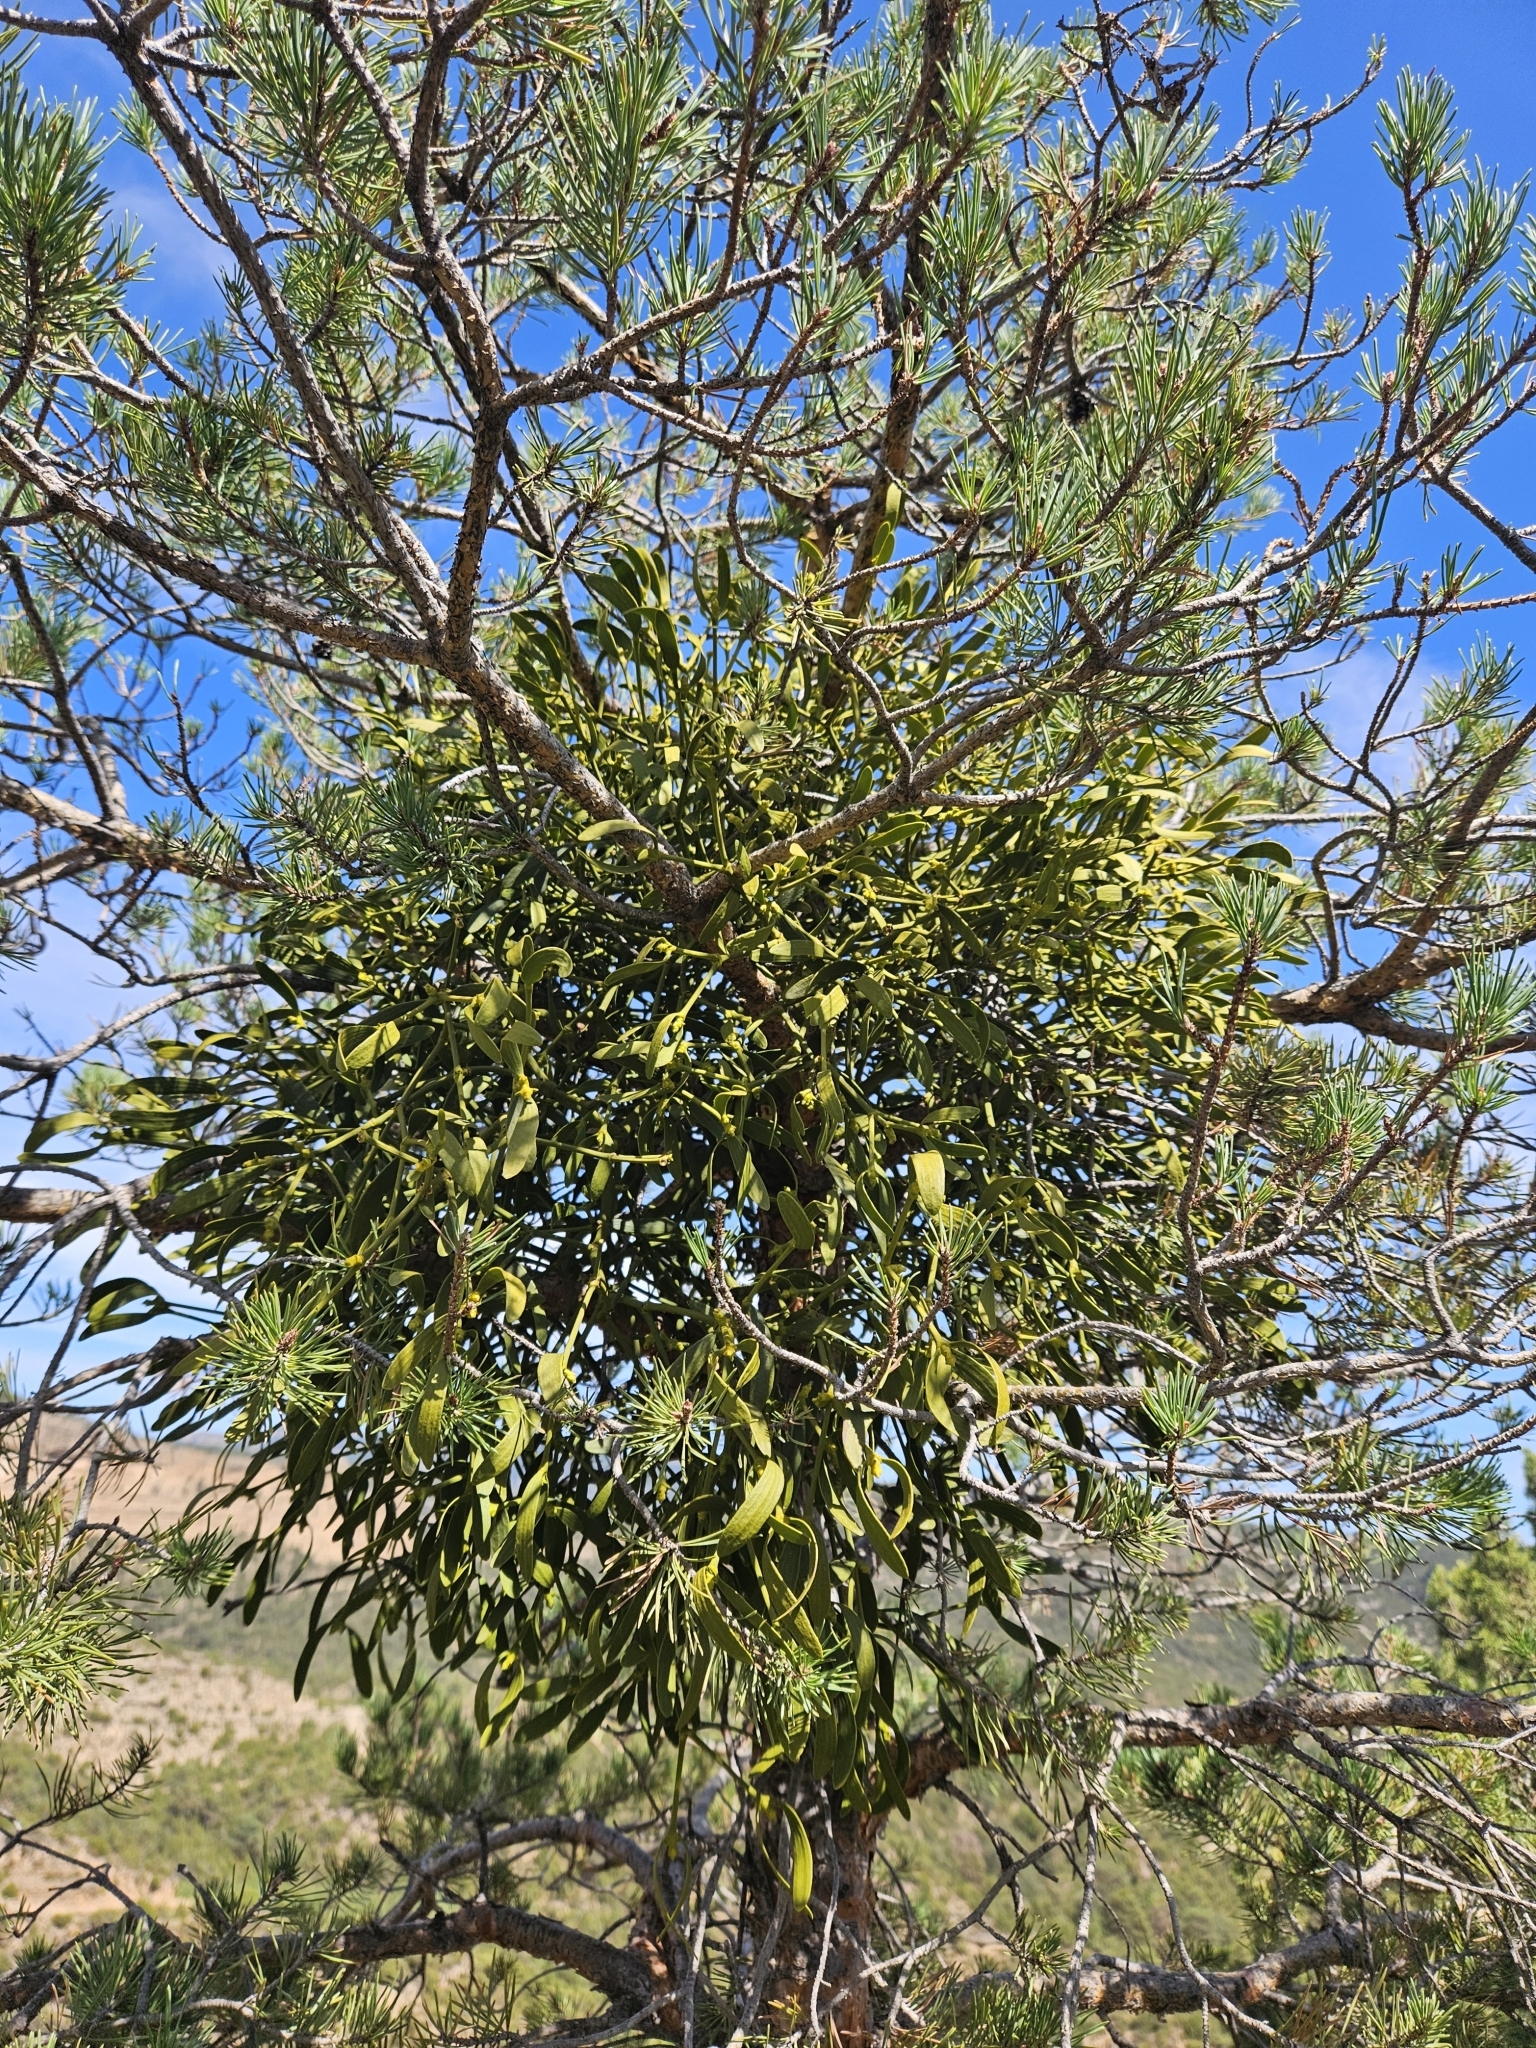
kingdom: Plantae
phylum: Tracheophyta
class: Magnoliopsida
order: Santalales
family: Viscaceae
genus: Viscum
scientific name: Viscum album
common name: Mistletoe
